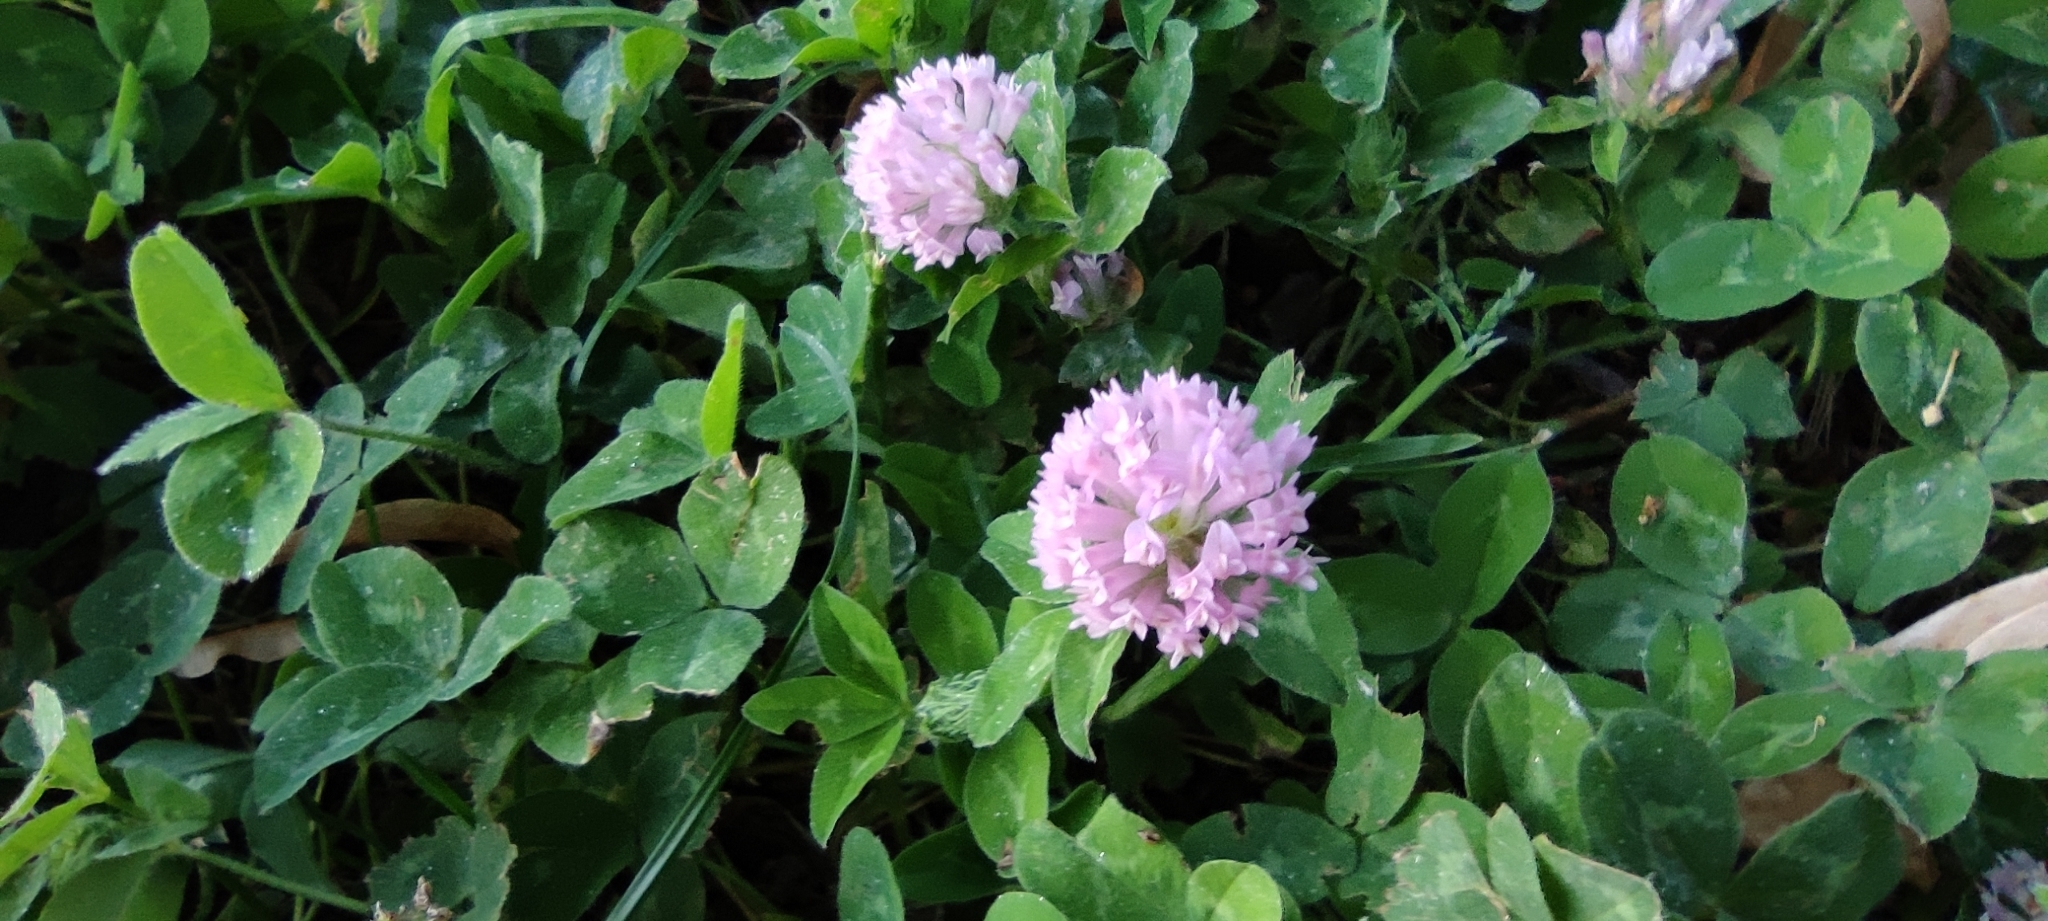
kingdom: Plantae
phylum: Tracheophyta
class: Magnoliopsida
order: Fabales
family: Fabaceae
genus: Trifolium
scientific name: Trifolium pratense
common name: Red clover
